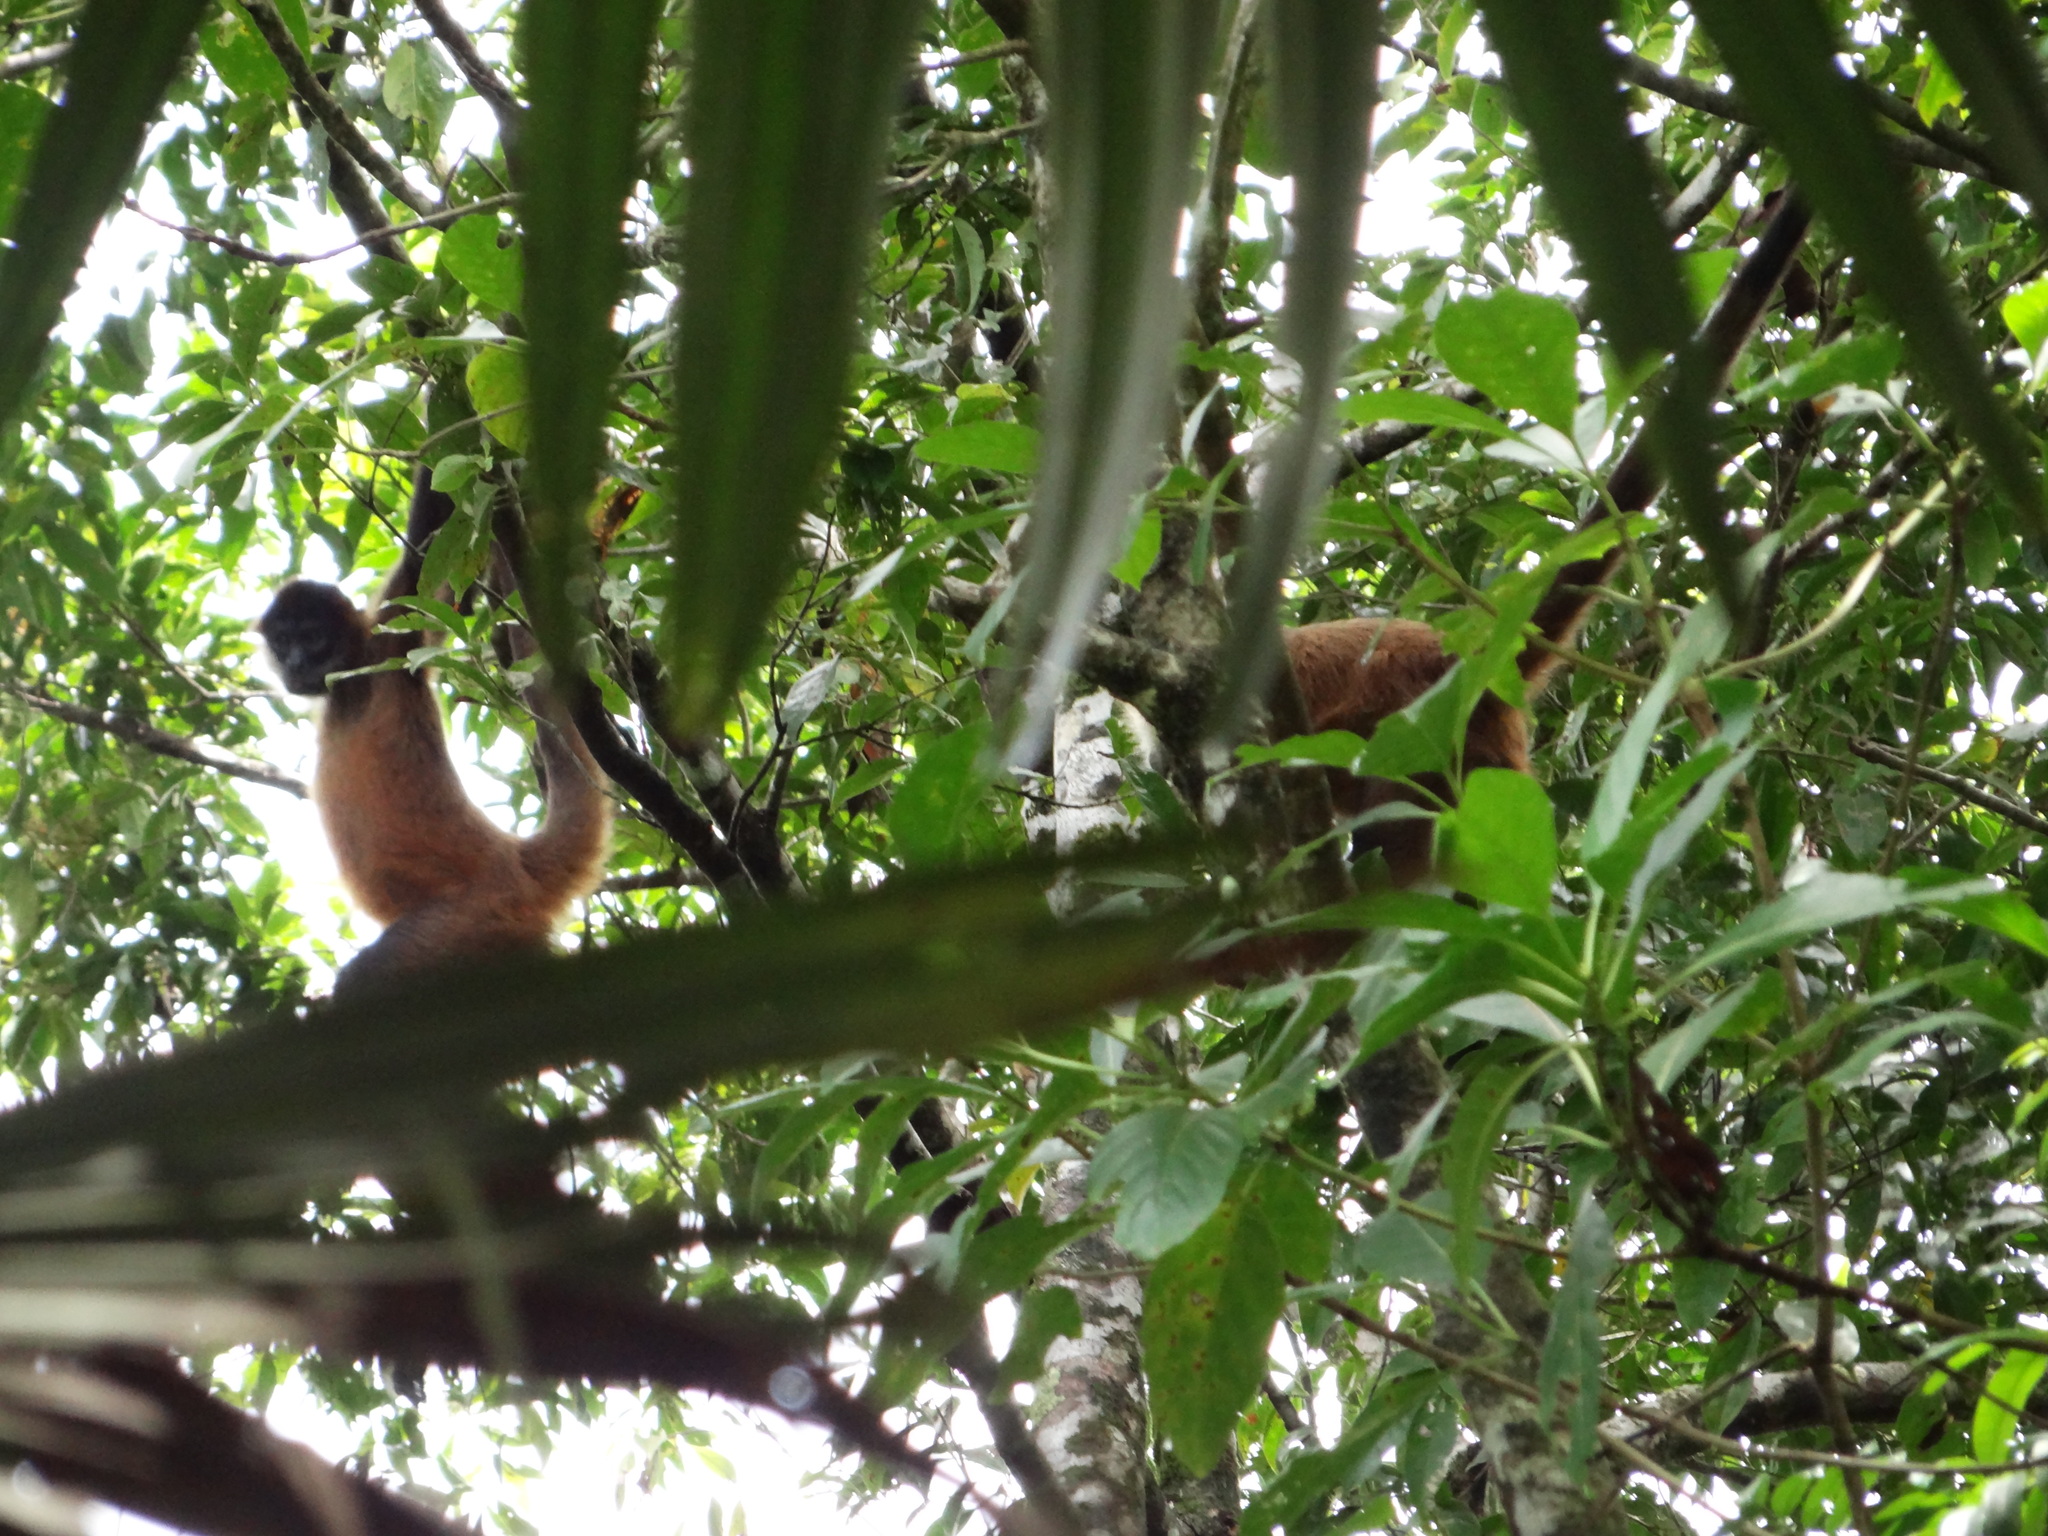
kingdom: Animalia
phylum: Chordata
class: Mammalia
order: Primates
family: Atelidae
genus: Ateles
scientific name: Ateles geoffroyi
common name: Black-handed spider monkey
